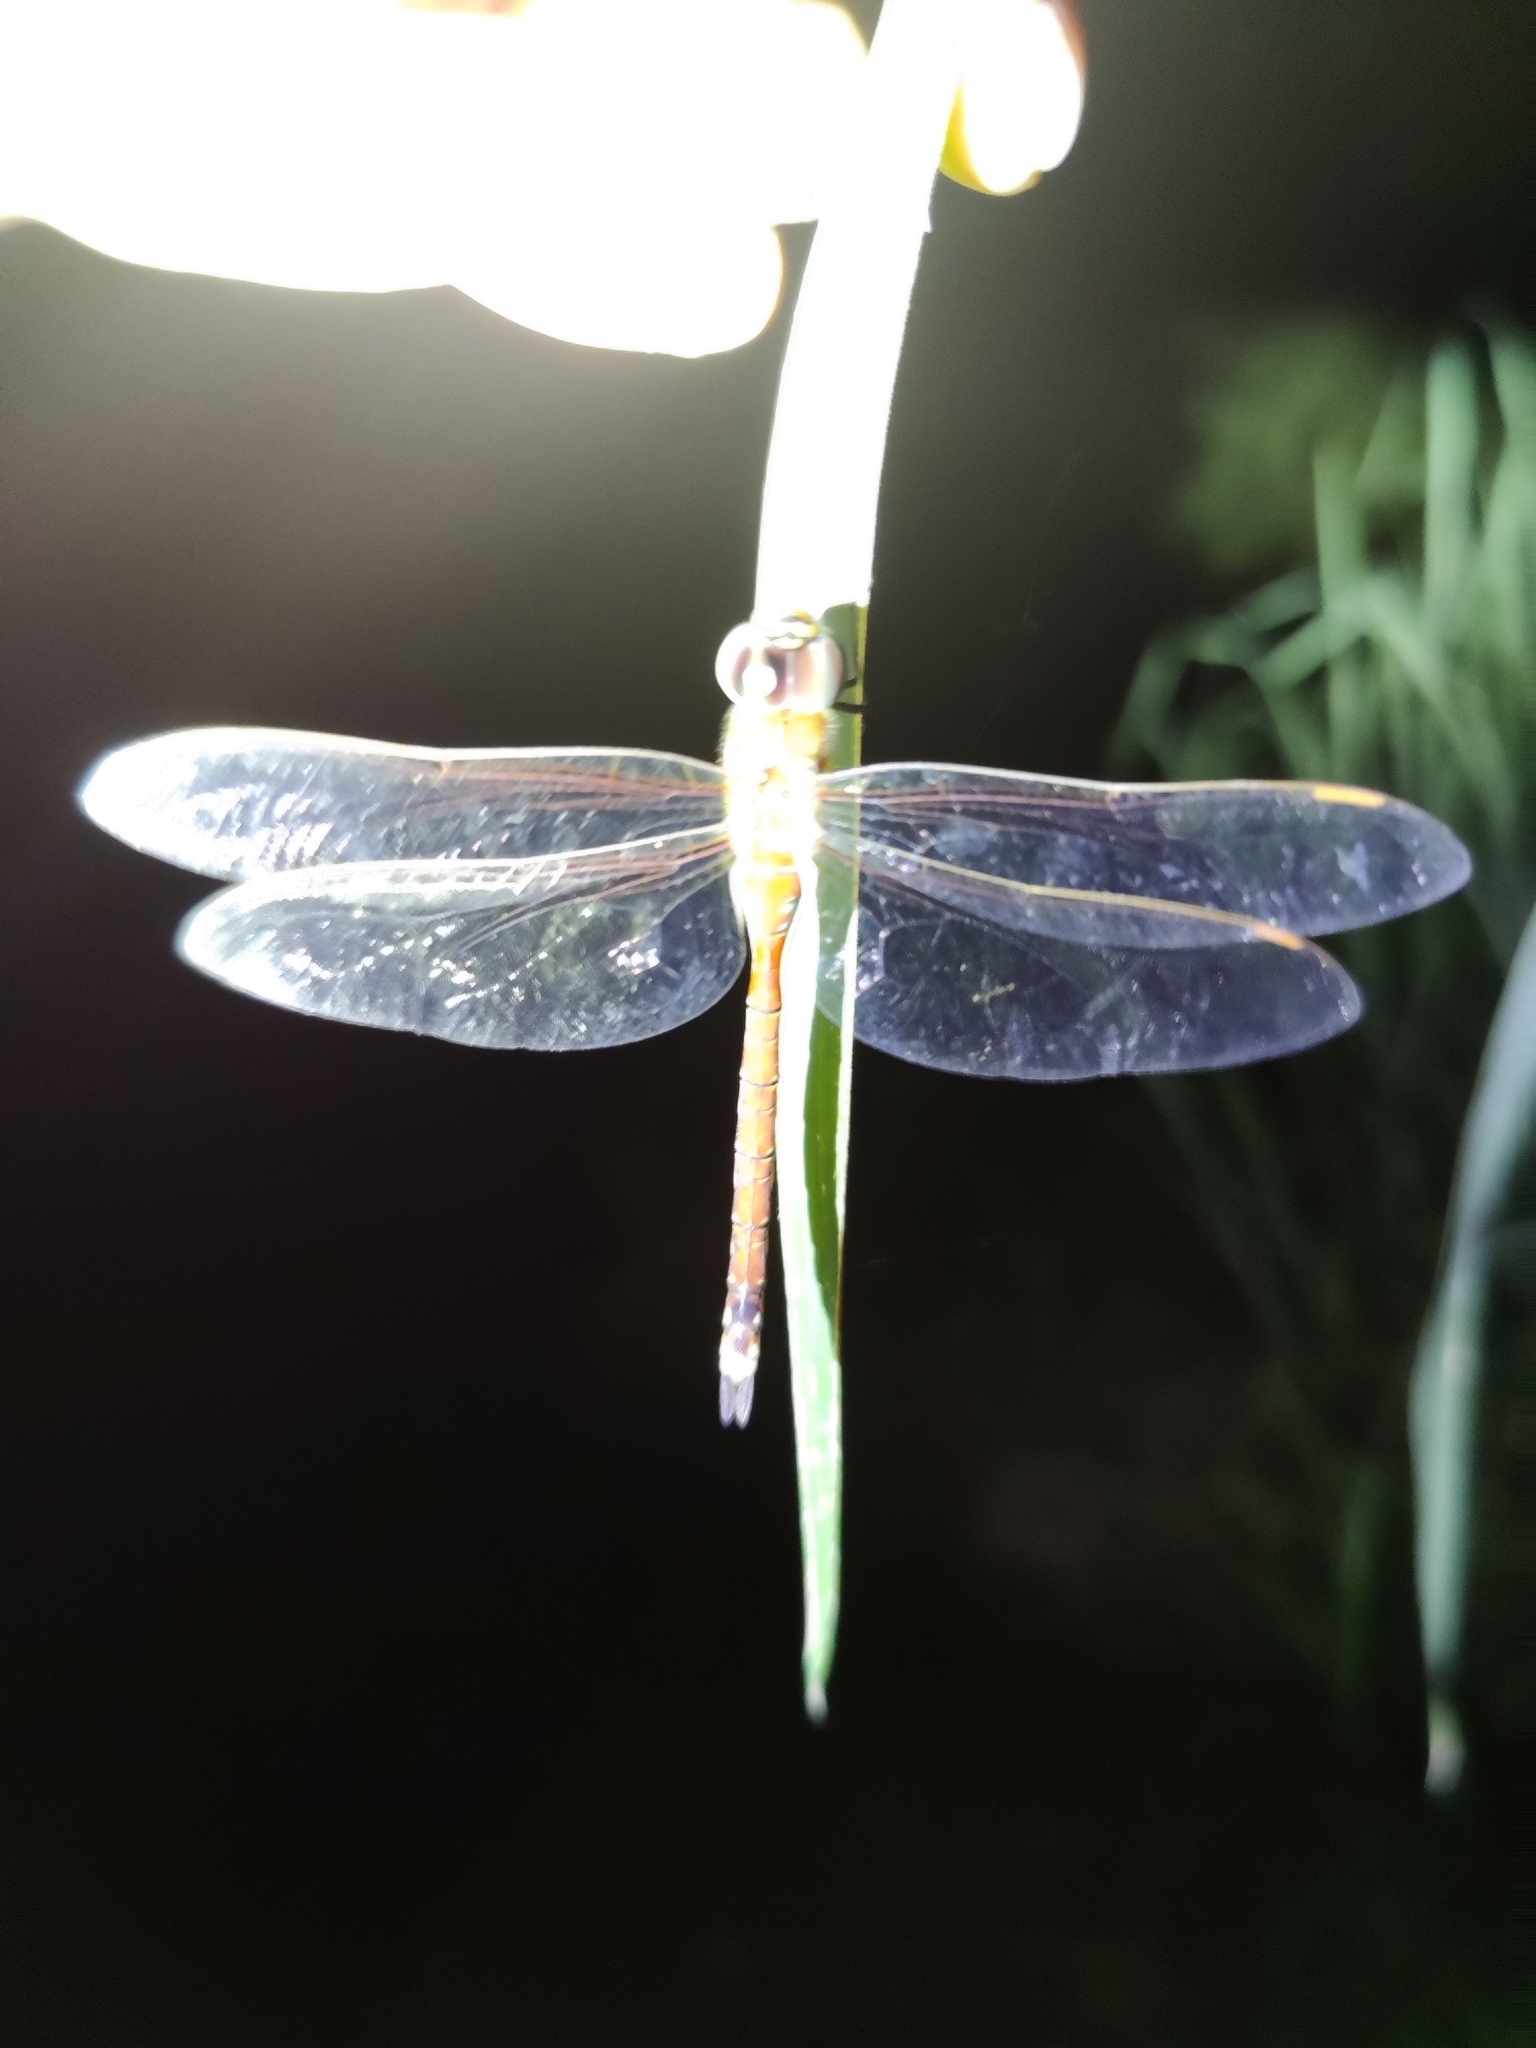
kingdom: Animalia
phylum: Arthropoda
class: Insecta
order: Odonata
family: Aeshnidae
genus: Anax
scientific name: Anax ephippiger
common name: Vagrant emperor
